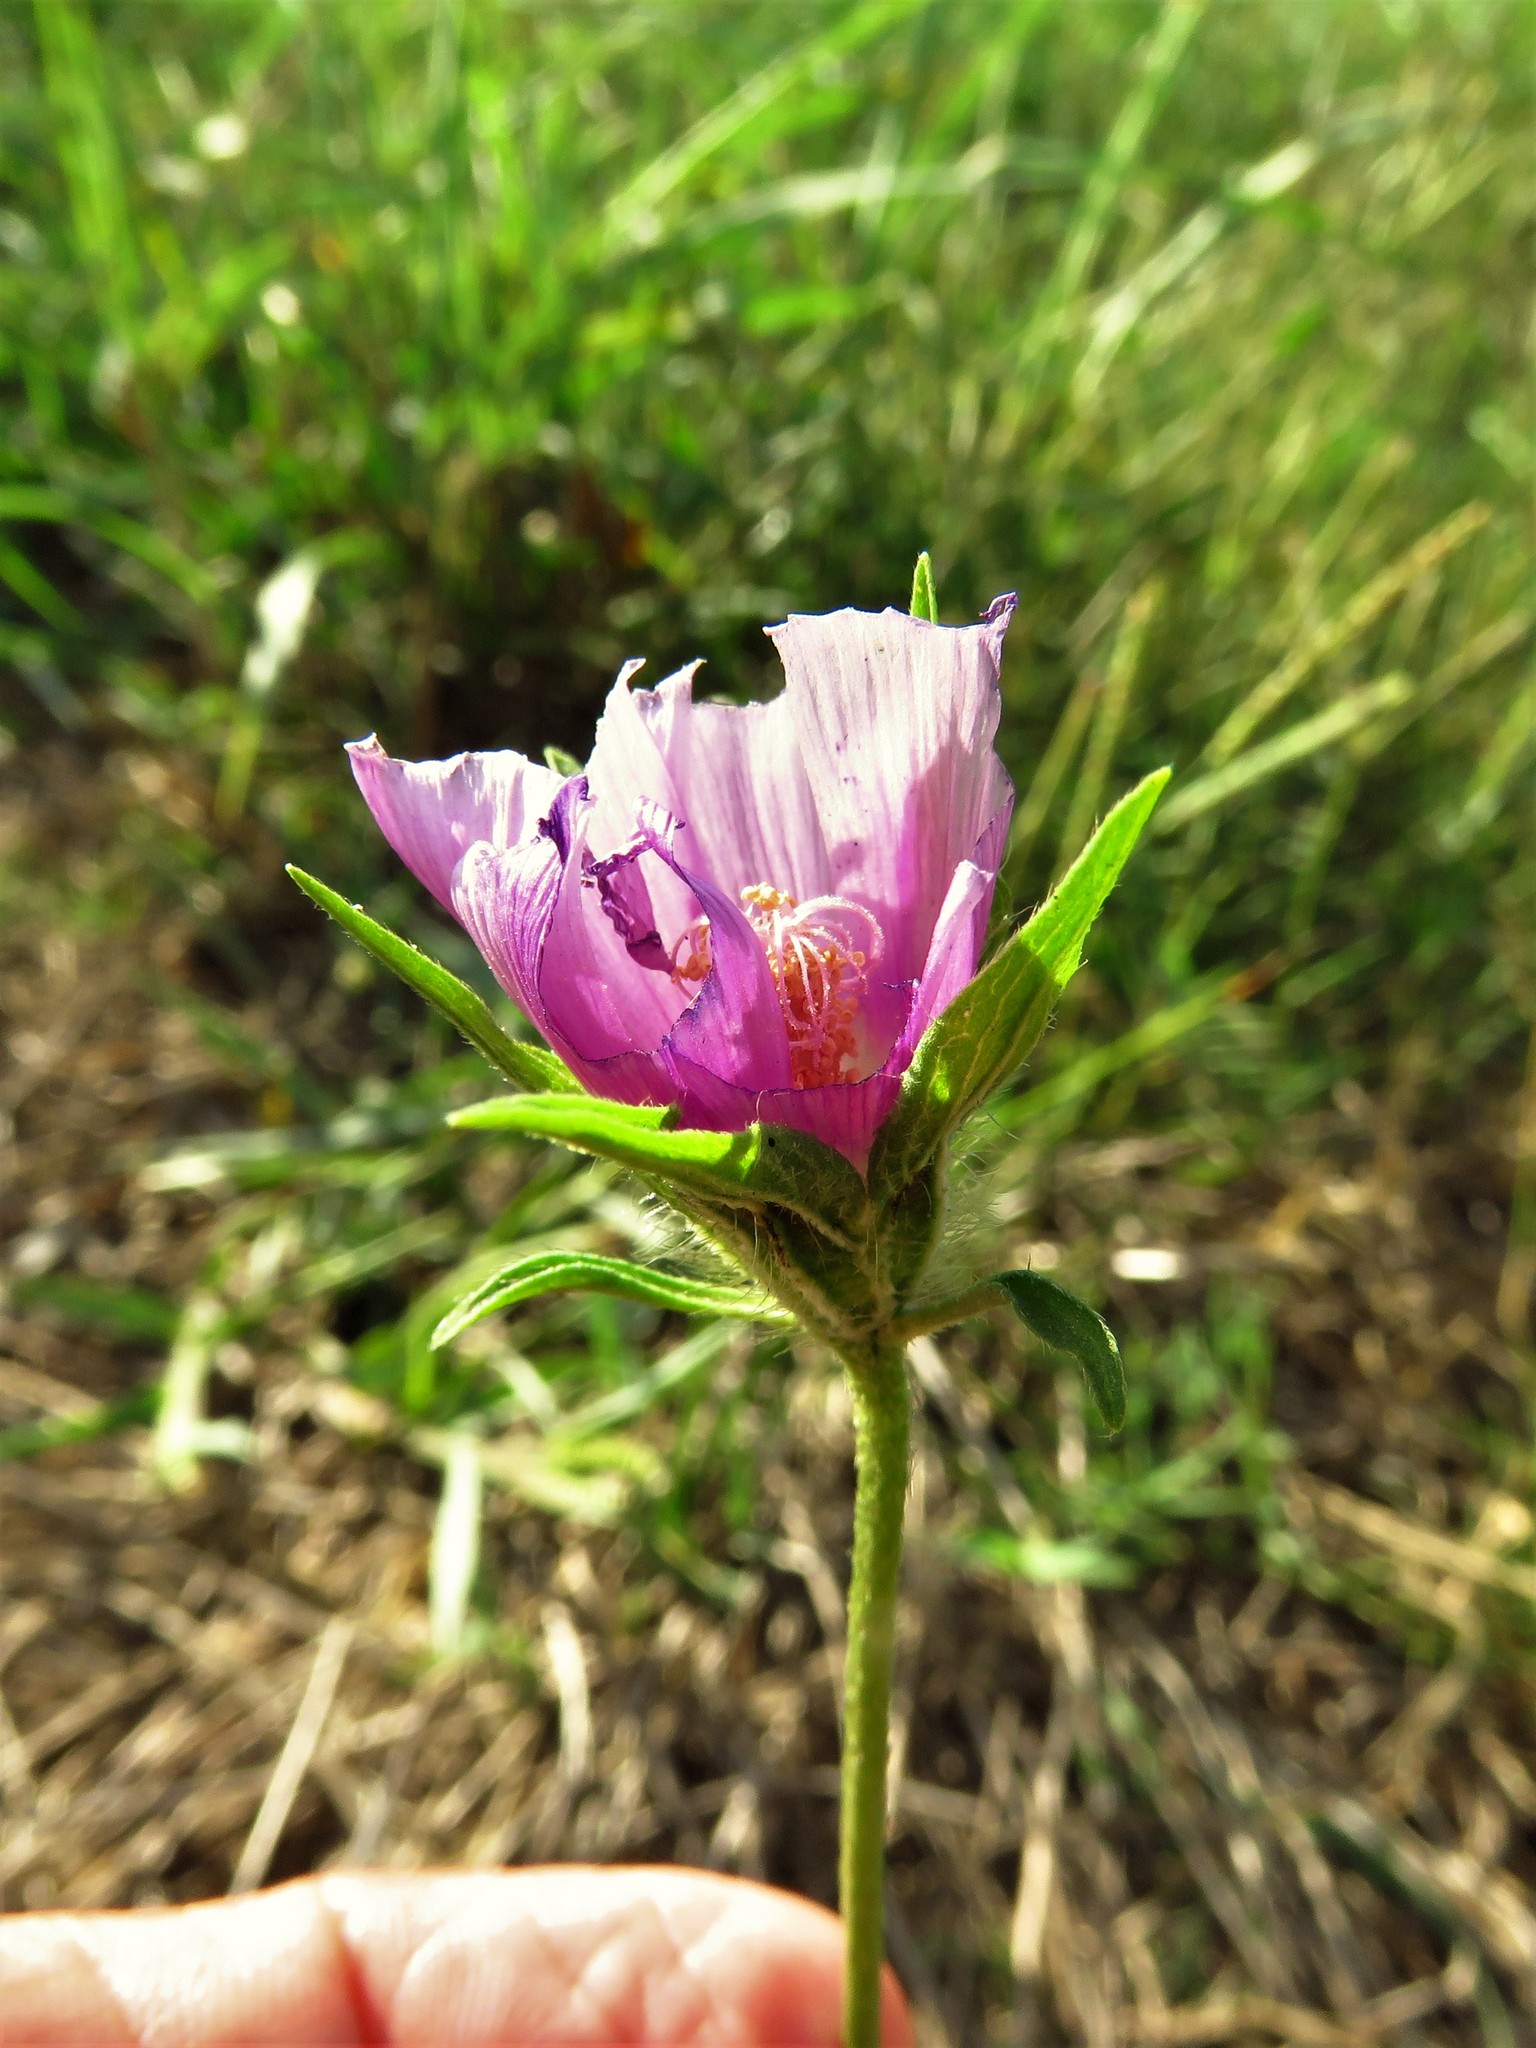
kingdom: Plantae
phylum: Tracheophyta
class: Magnoliopsida
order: Malvales
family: Malvaceae
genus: Callirhoe
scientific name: Callirhoe involucrata
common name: Purple poppy-mallow
